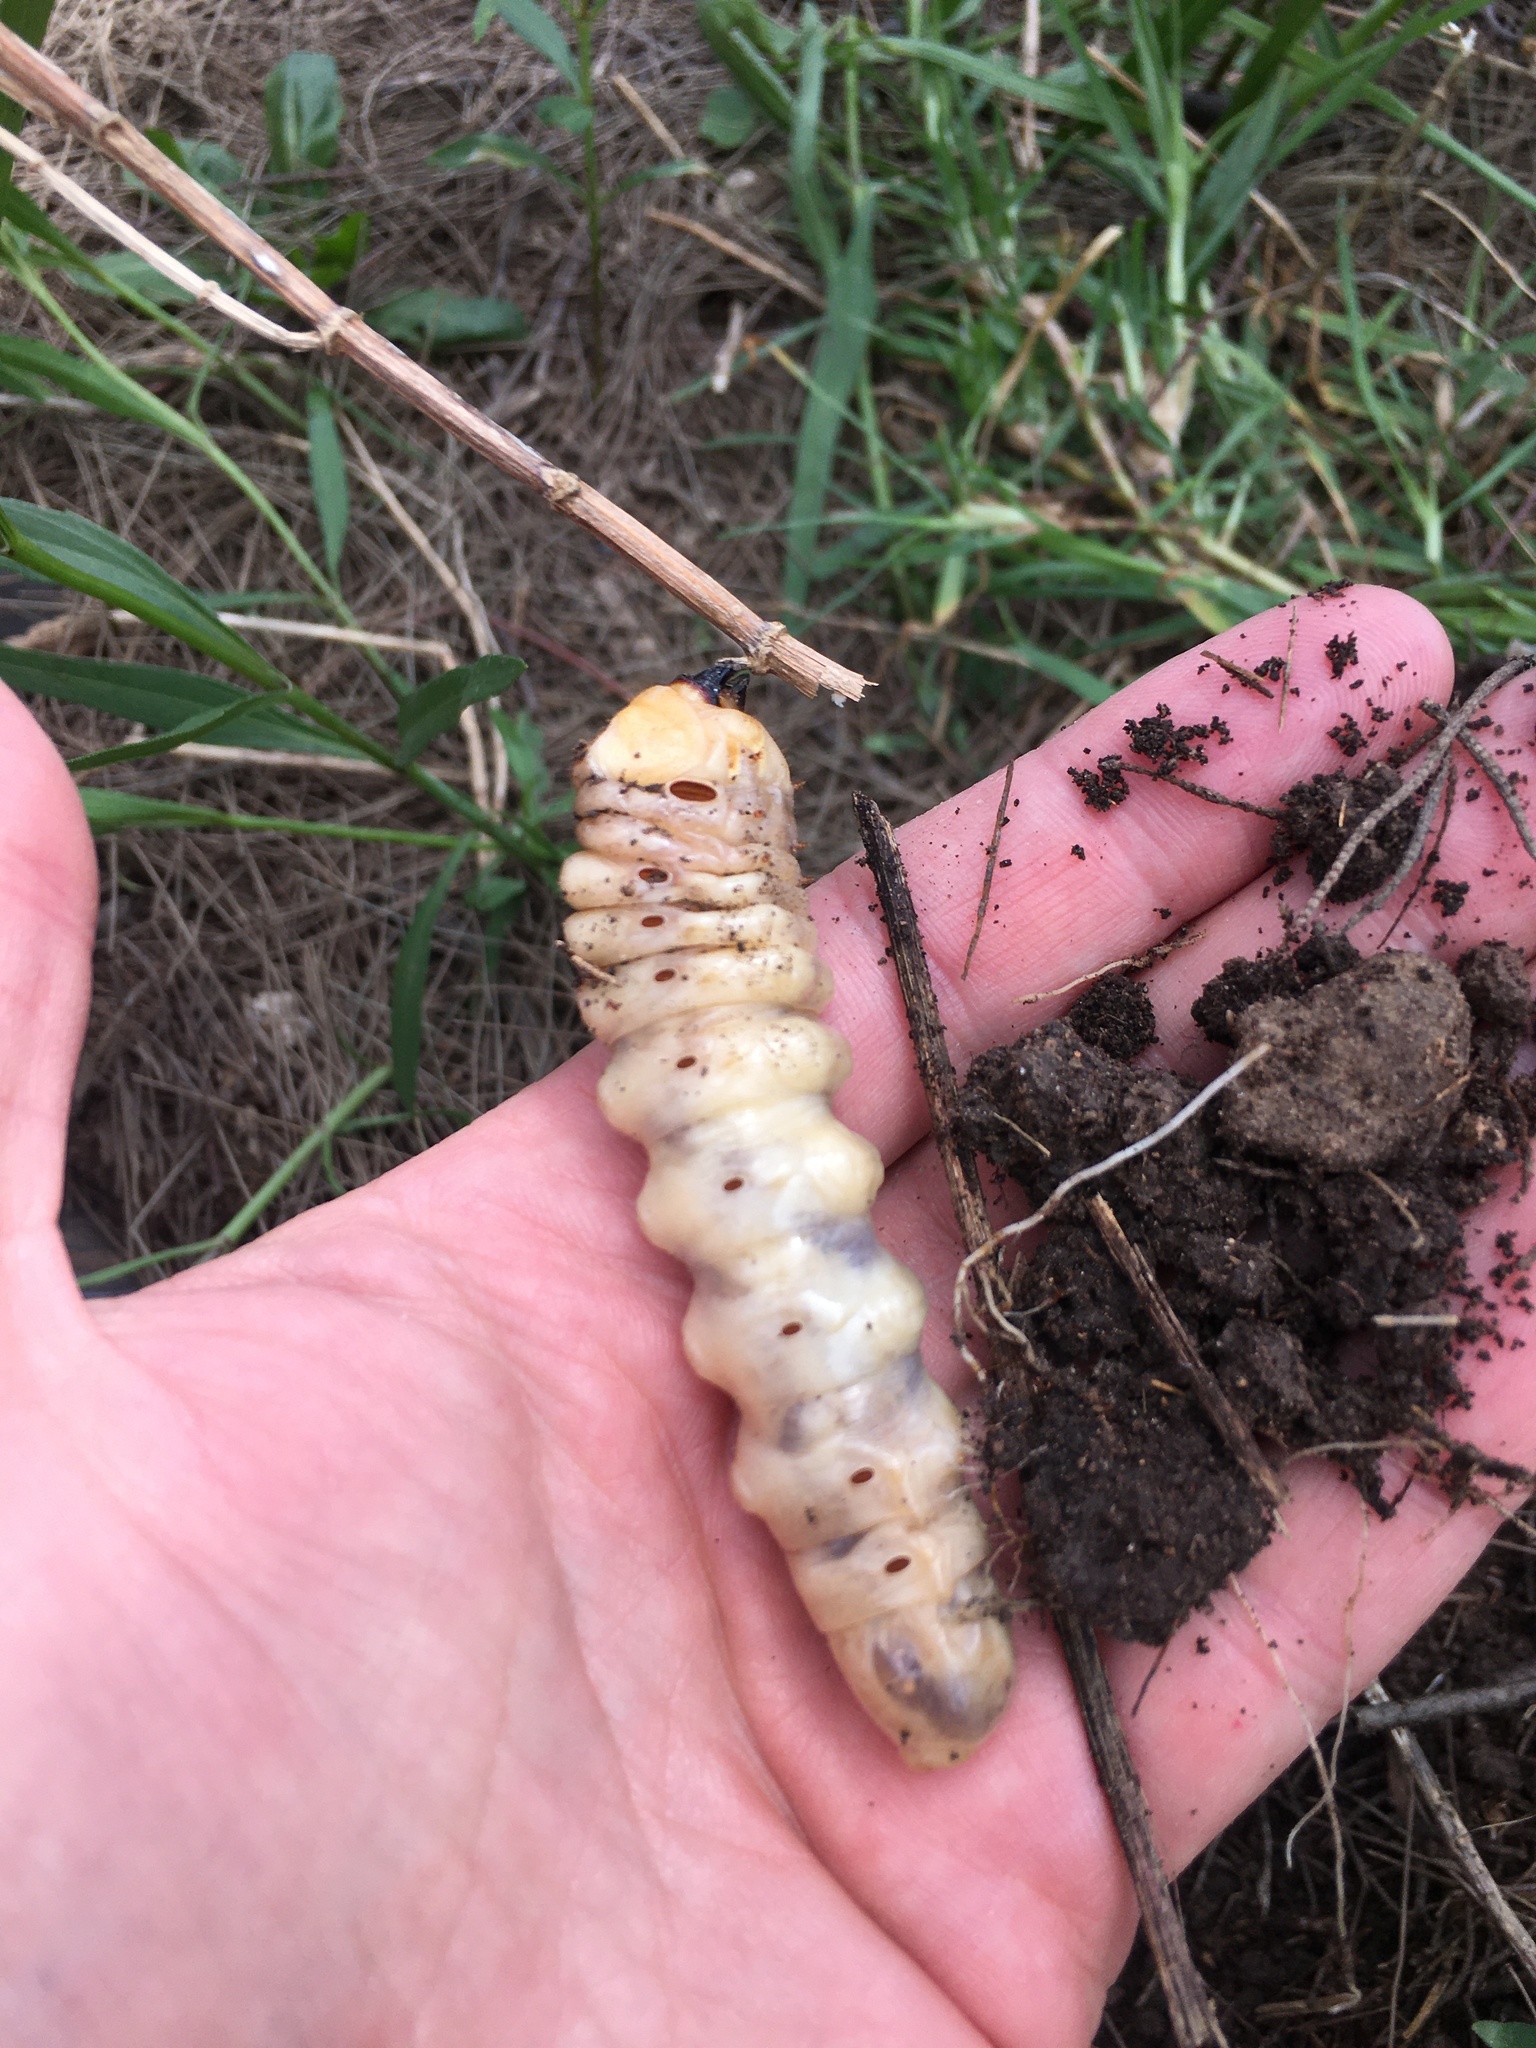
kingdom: Animalia
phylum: Arthropoda
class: Insecta
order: Coleoptera
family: Cerambycidae
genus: Mallodon
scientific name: Mallodon dasystomum
